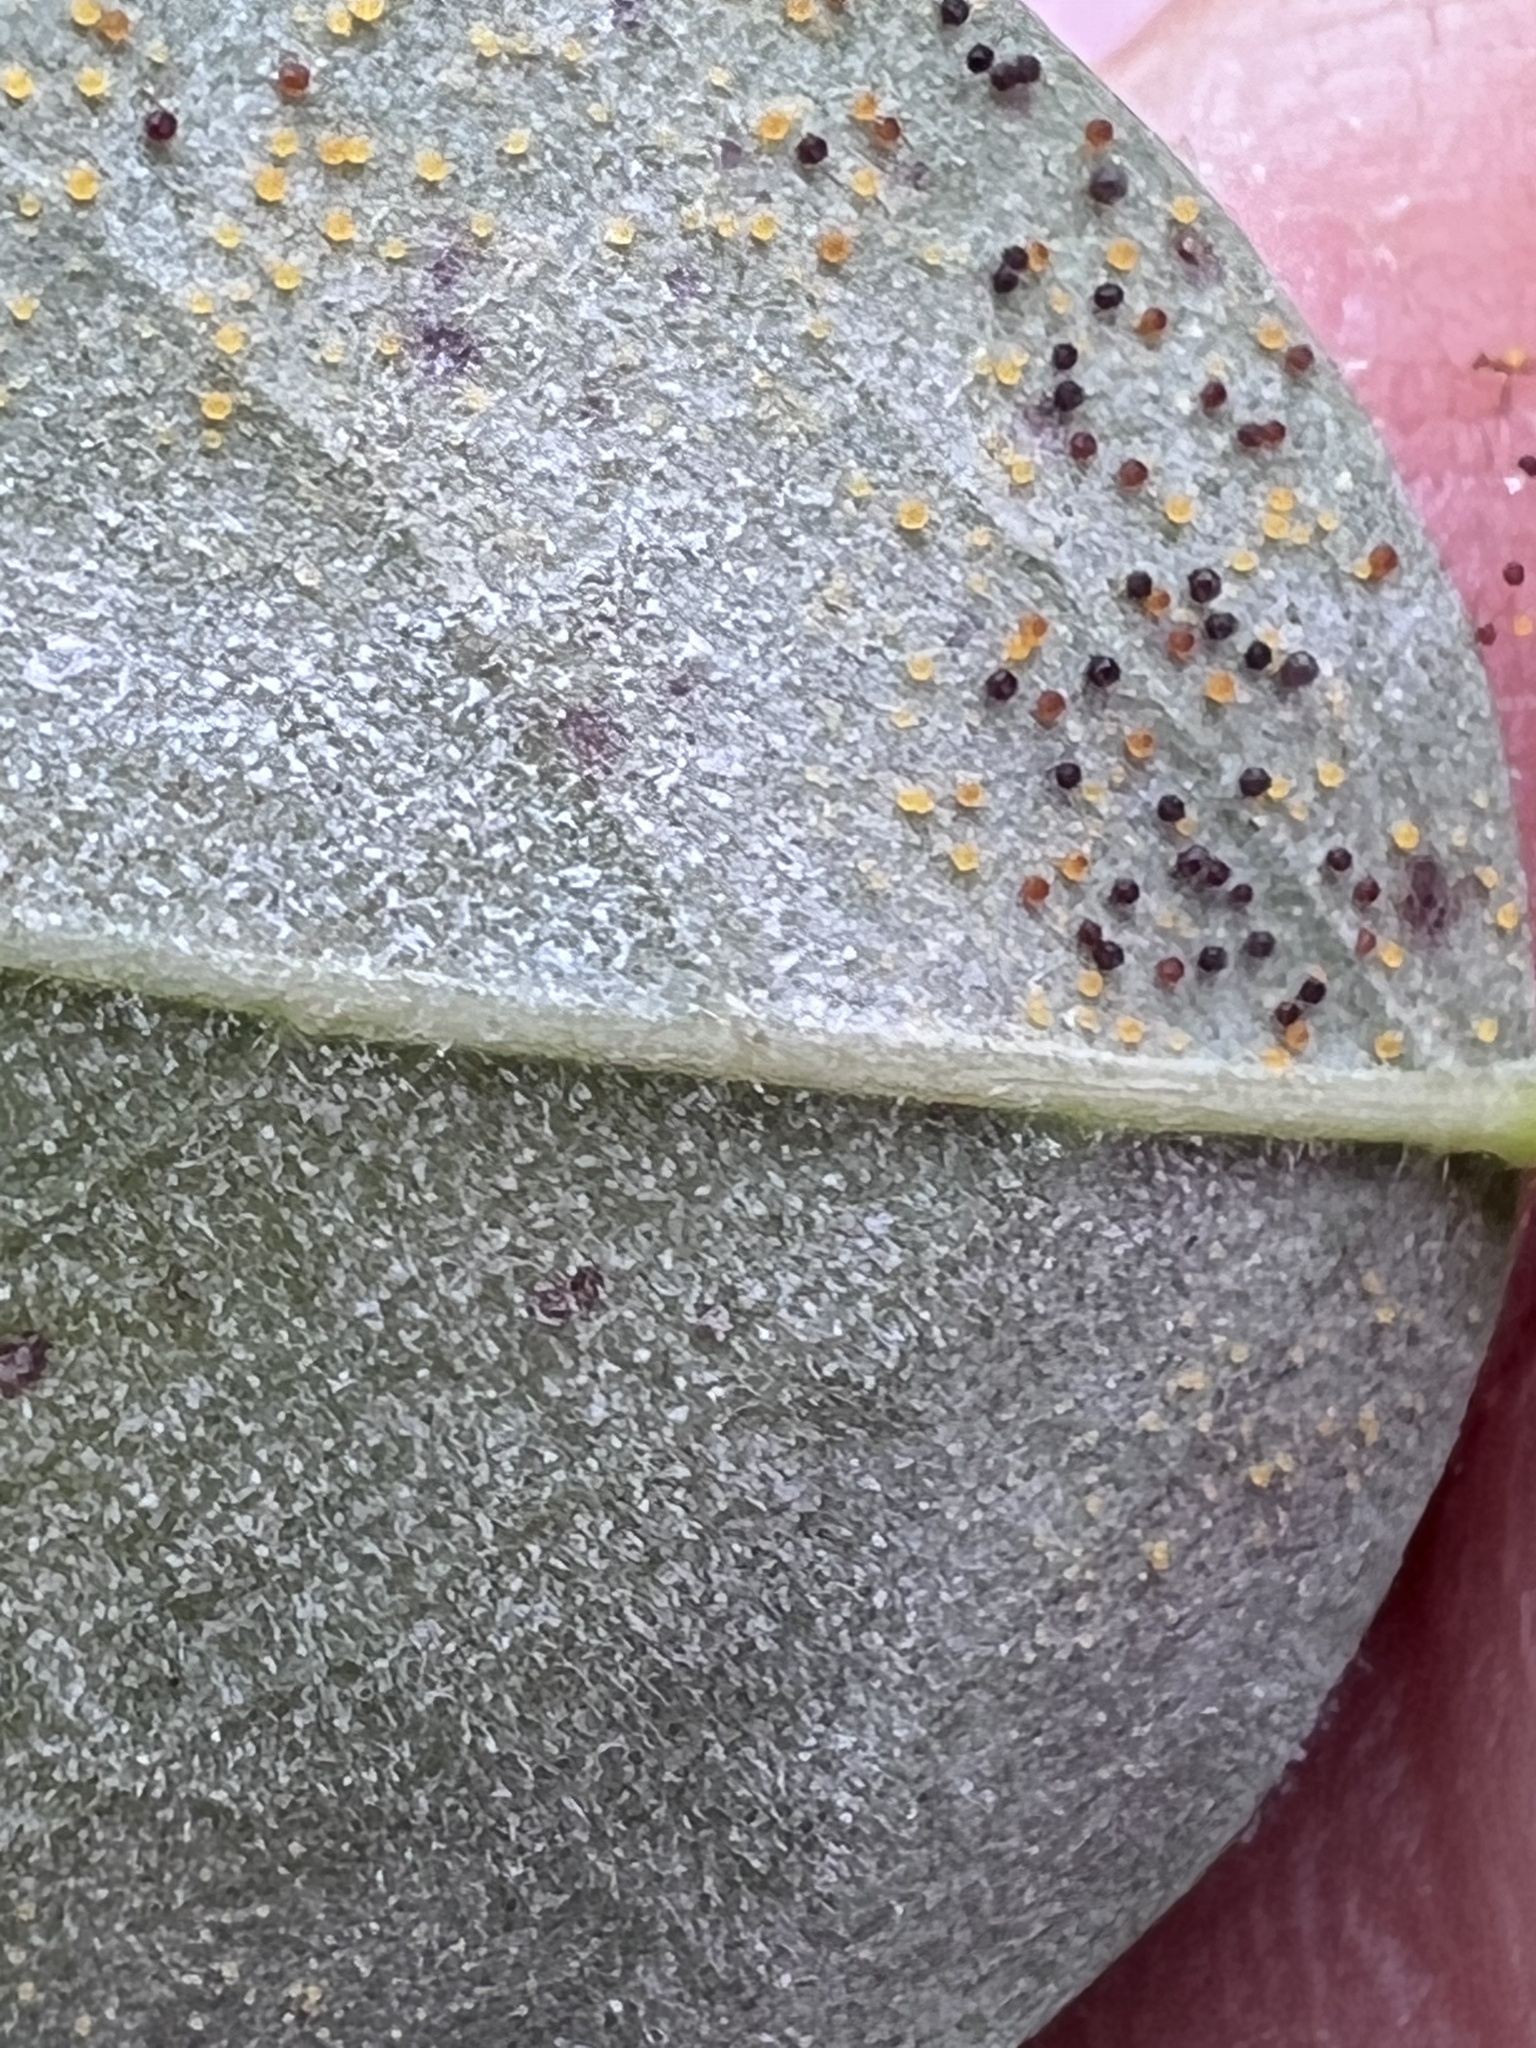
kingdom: Fungi
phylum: Ascomycota
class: Leotiomycetes
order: Helotiales
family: Erysiphaceae
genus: Phyllactinia
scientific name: Phyllactinia robiniae
